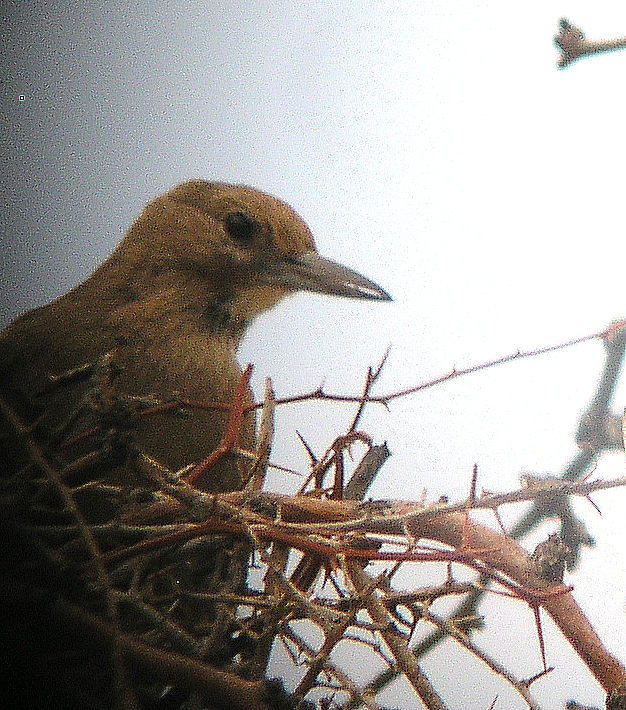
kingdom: Animalia
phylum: Chordata
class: Aves
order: Passeriformes
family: Furnariidae
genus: Pseudoseisura
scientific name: Pseudoseisura gutturalis
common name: White-throated cacholote
